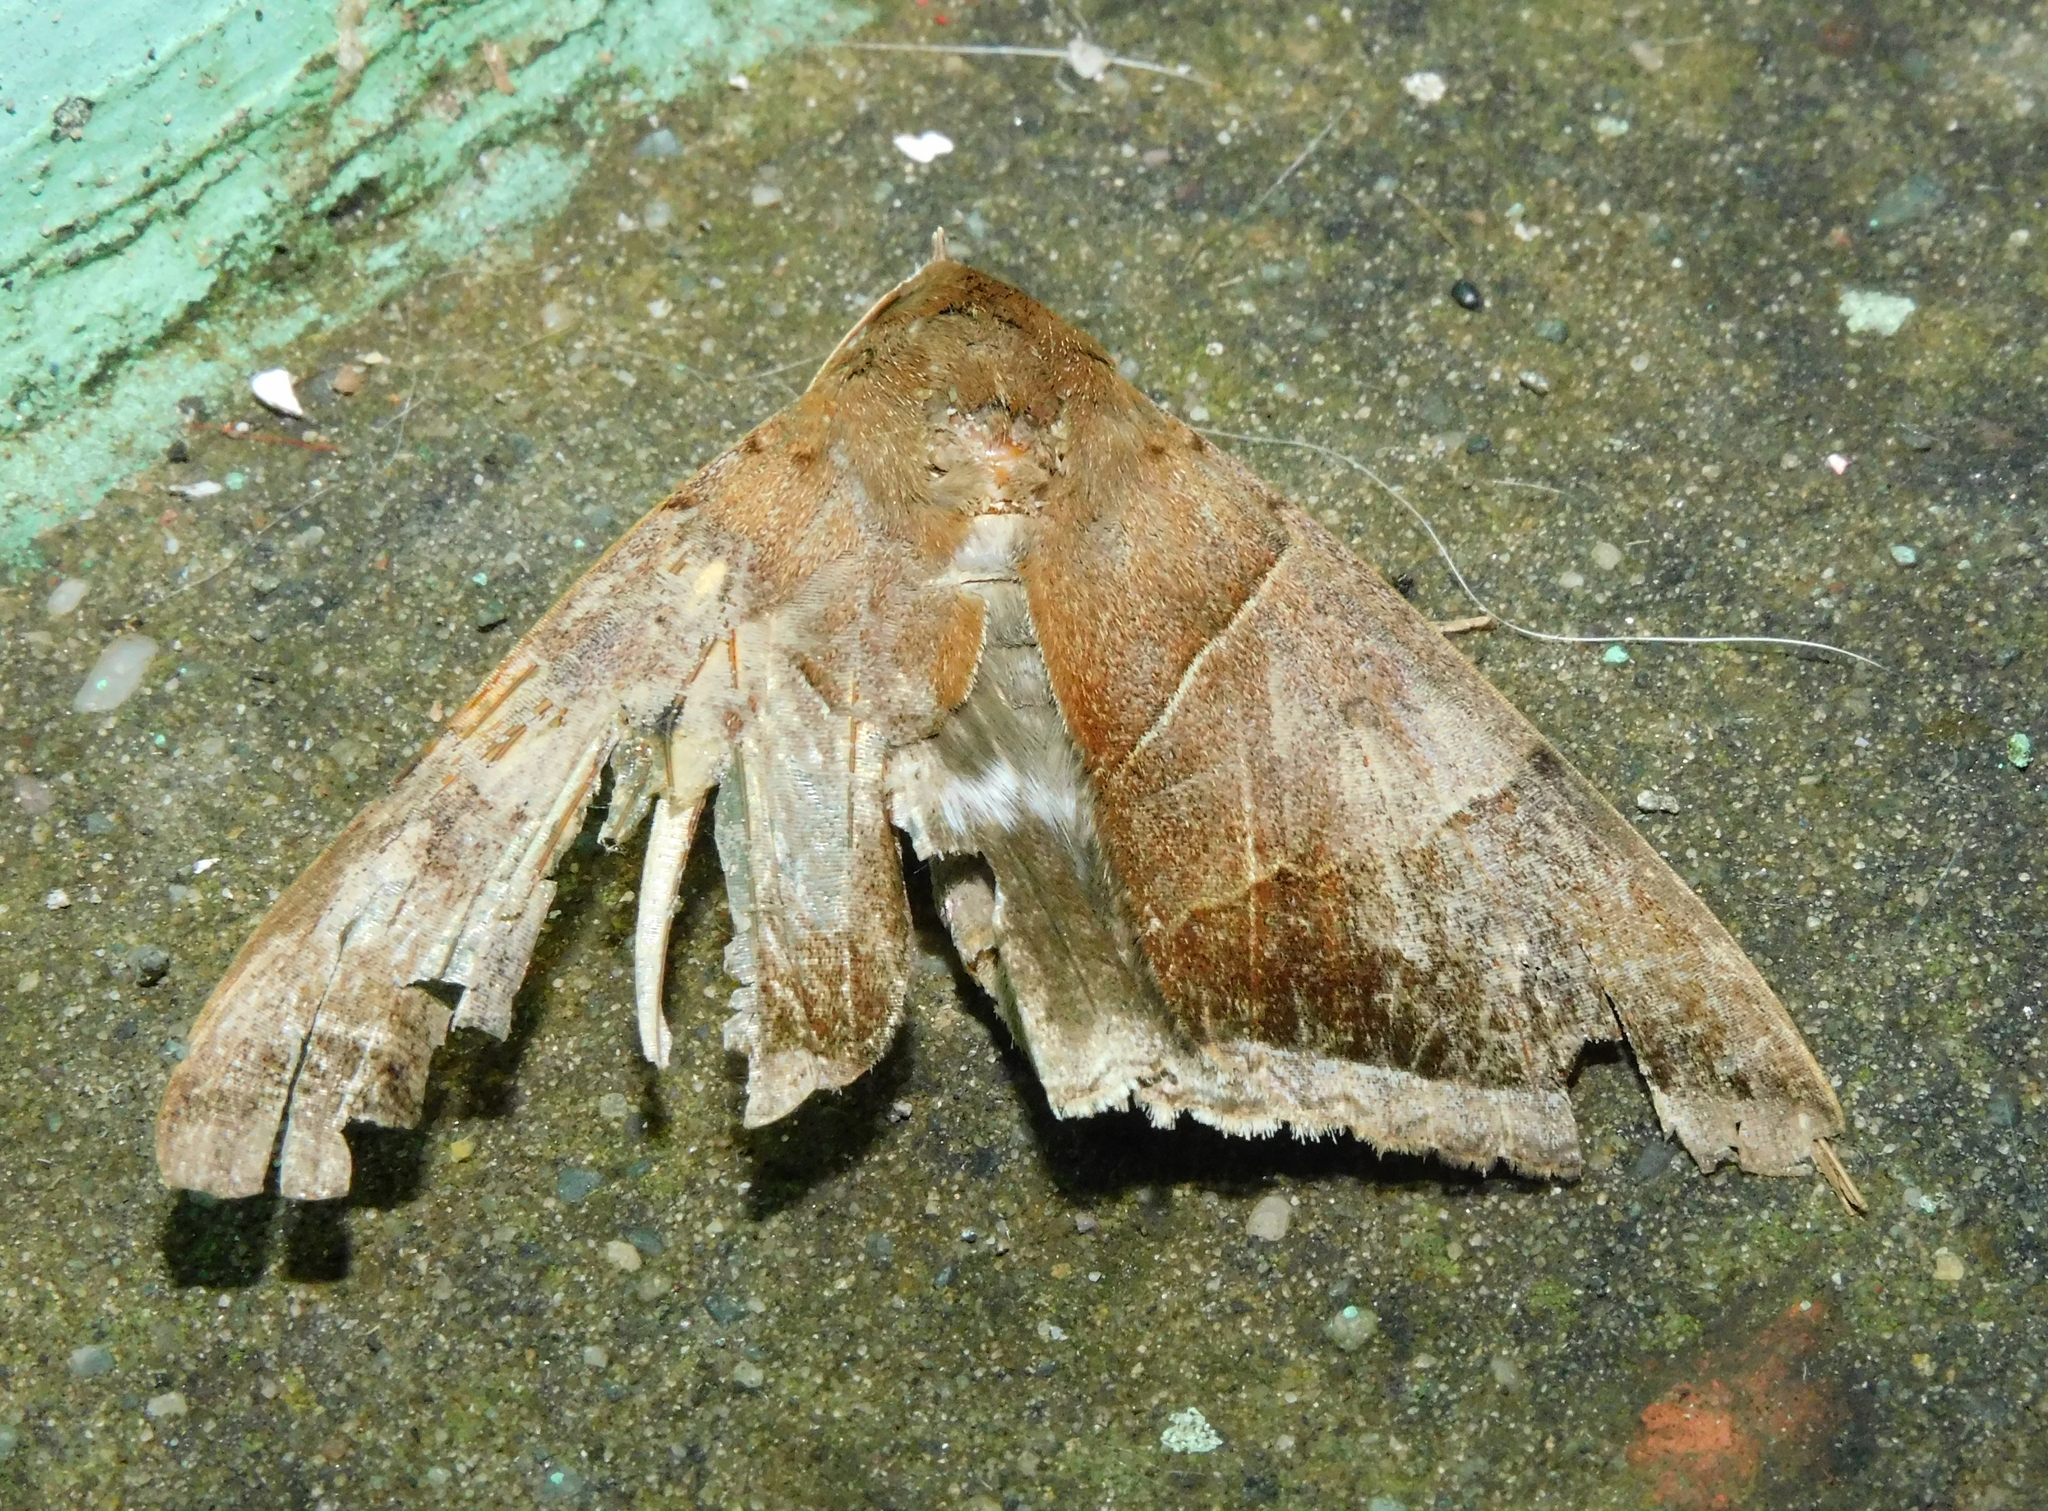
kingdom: Animalia
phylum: Arthropoda
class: Insecta
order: Lepidoptera
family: Erebidae
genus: Artena
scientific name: Artena dotata
